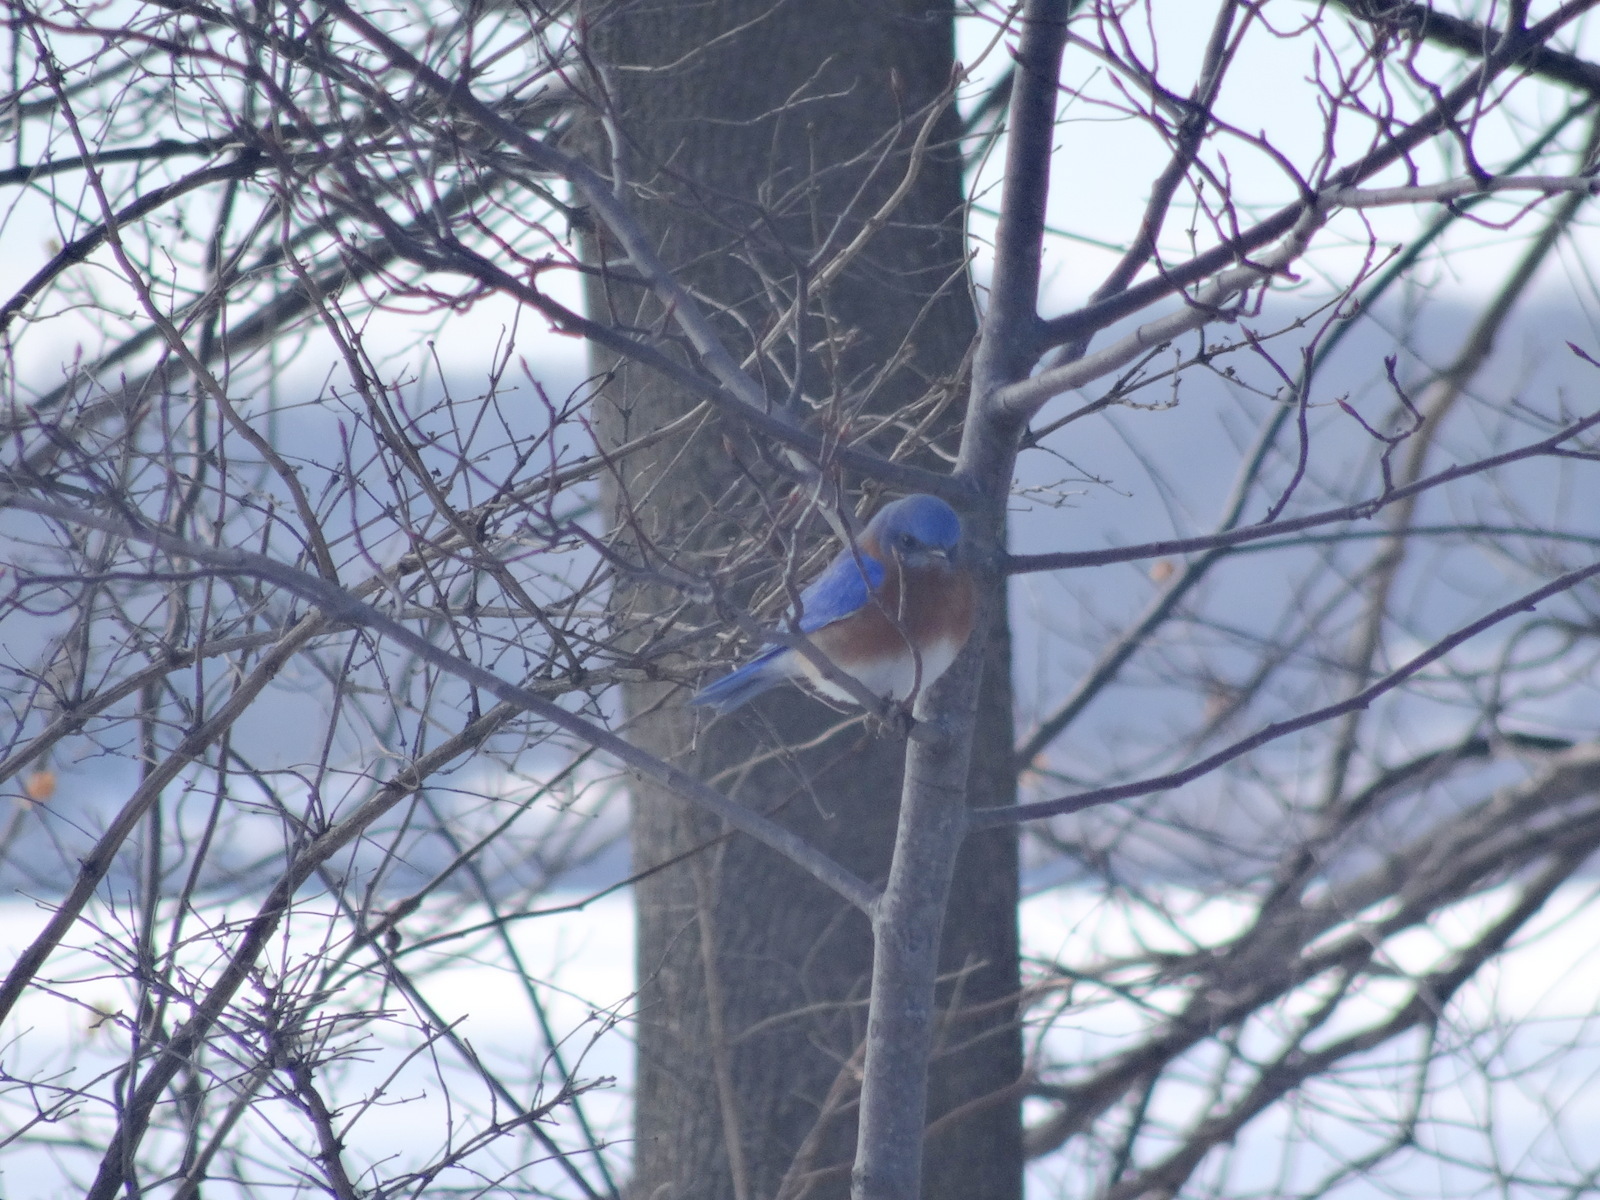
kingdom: Animalia
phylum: Chordata
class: Aves
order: Passeriformes
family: Turdidae
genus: Sialia
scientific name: Sialia sialis
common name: Eastern bluebird
